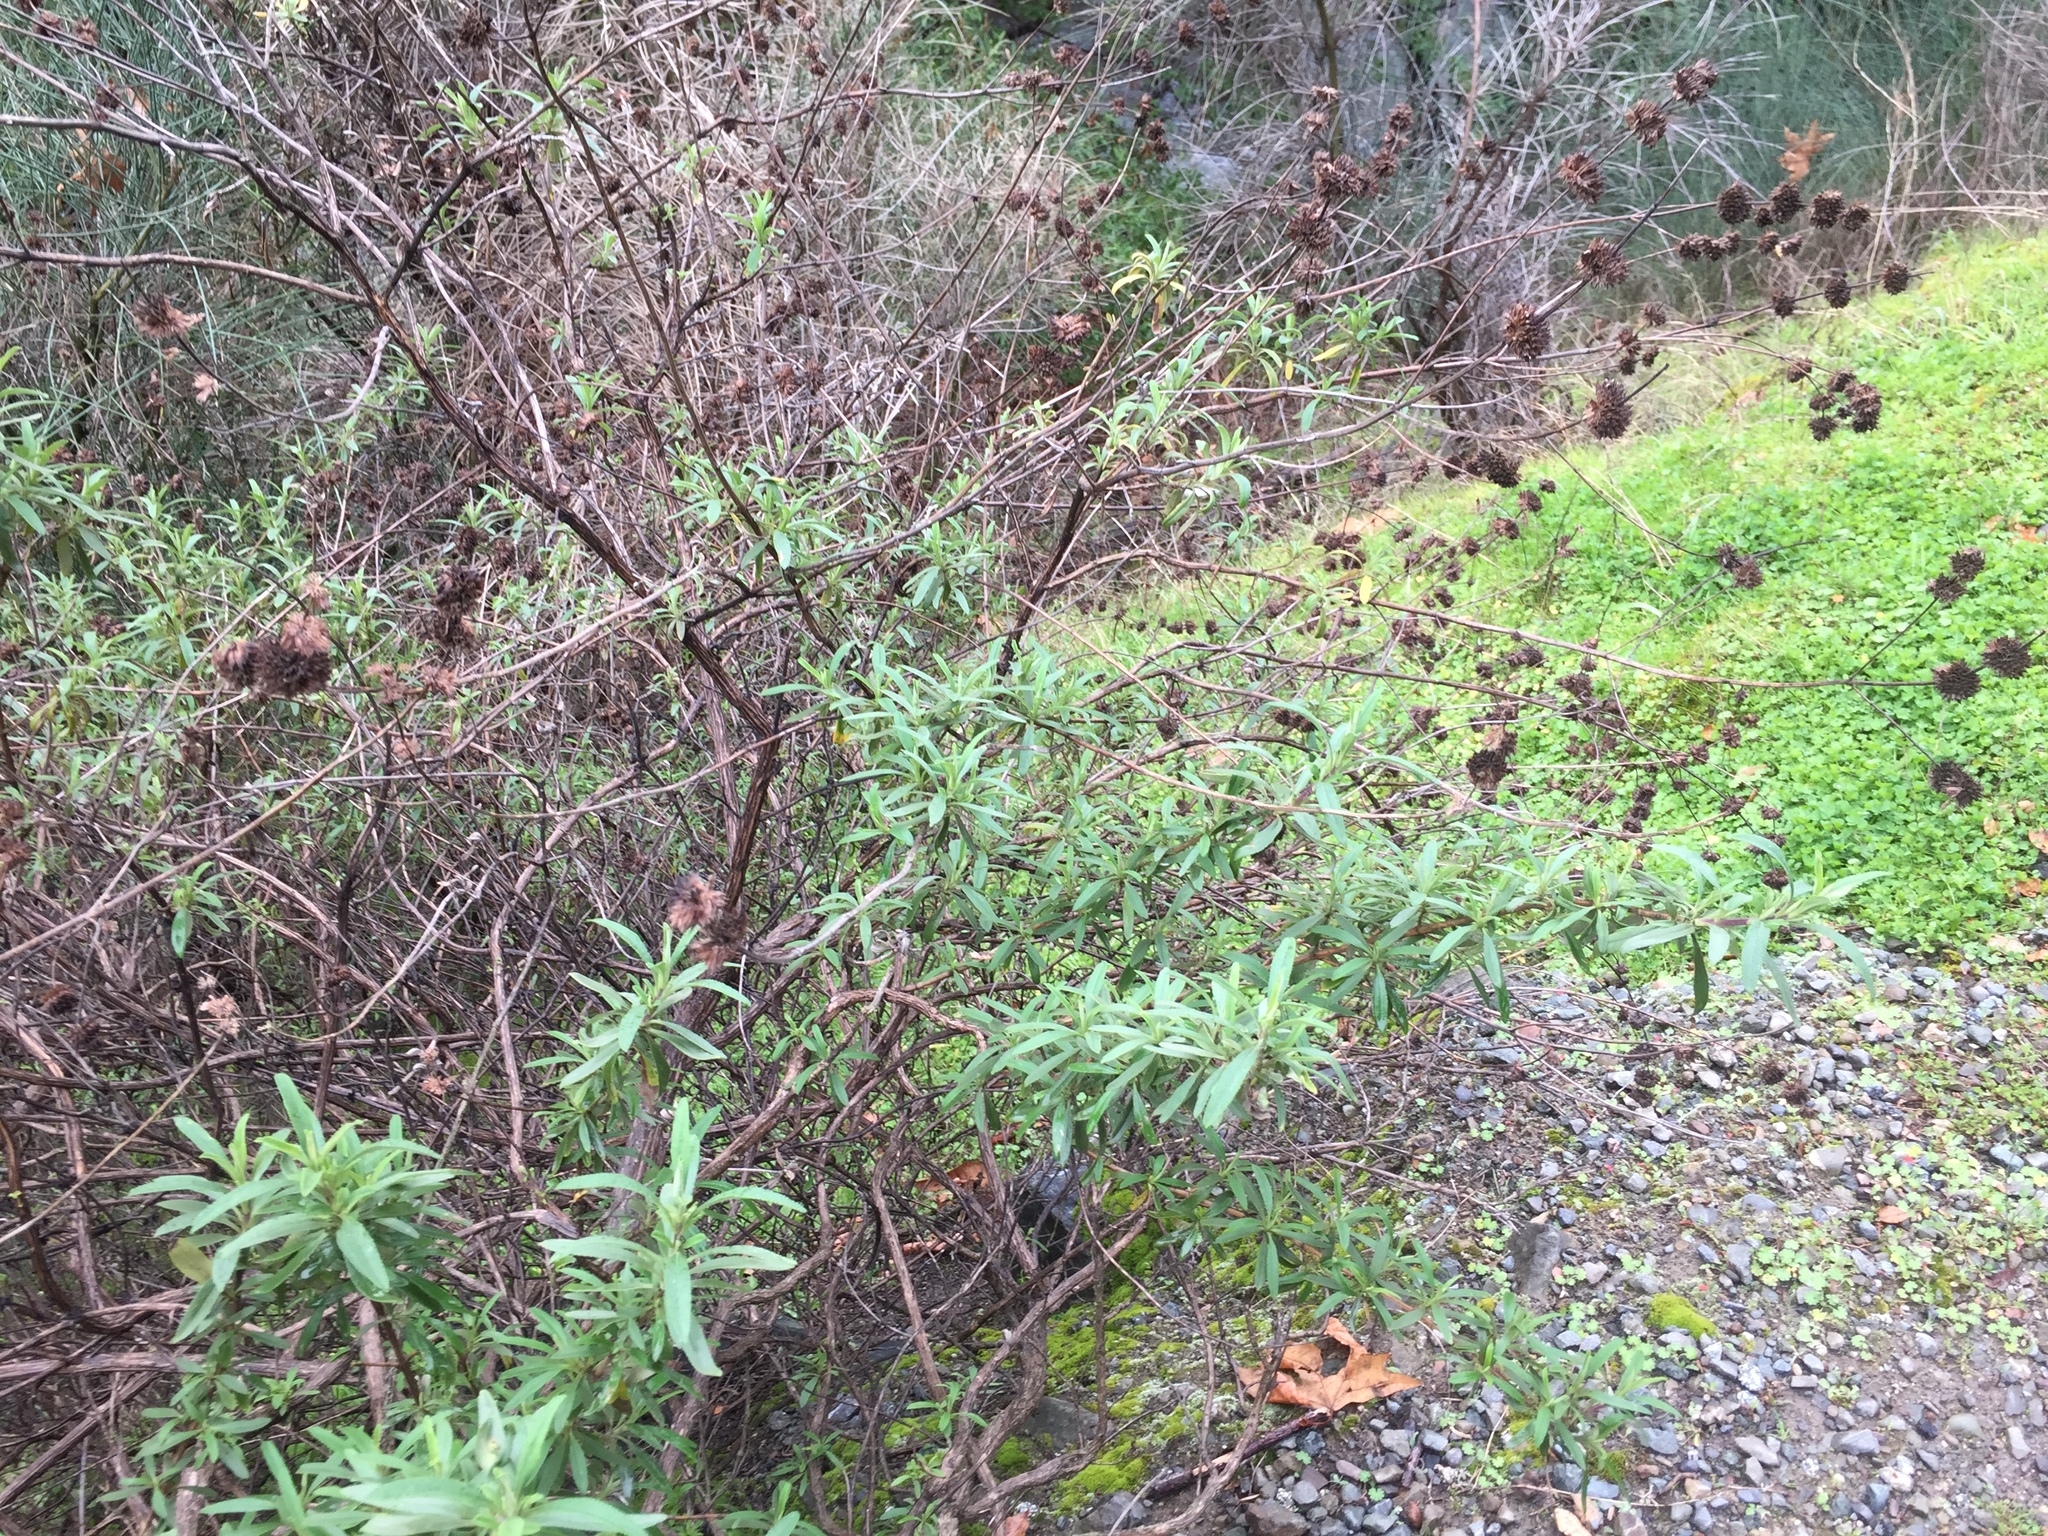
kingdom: Plantae
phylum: Tracheophyta
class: Magnoliopsida
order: Lamiales
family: Lamiaceae
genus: Salvia
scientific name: Salvia mellifera
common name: Black sage
